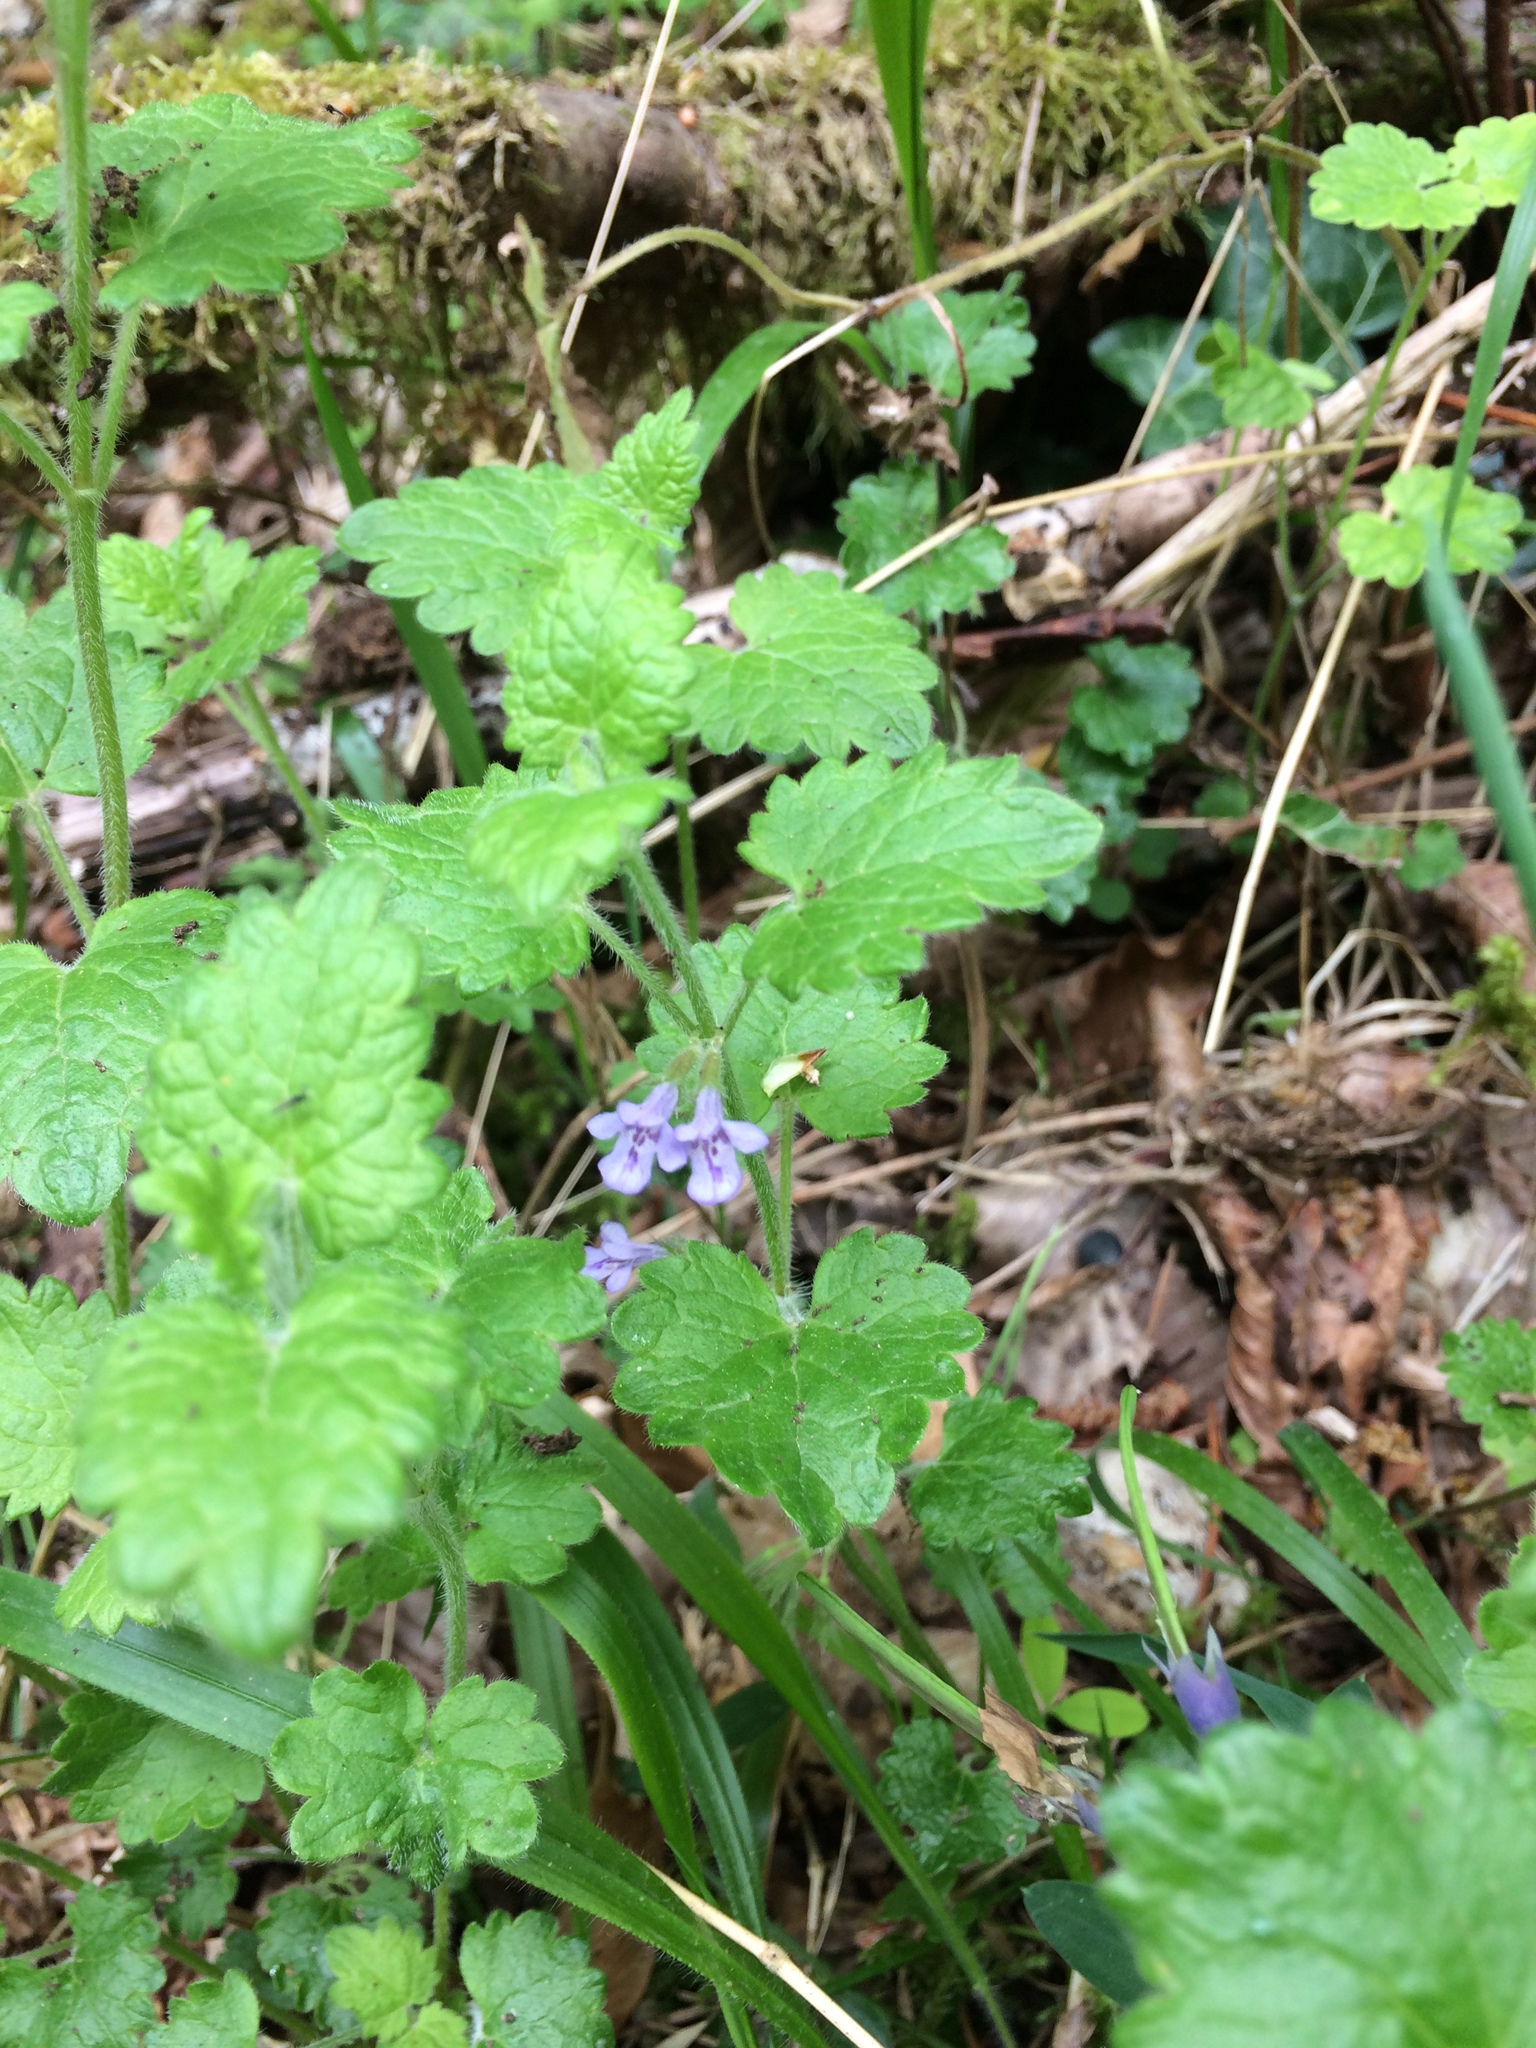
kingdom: Plantae
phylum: Tracheophyta
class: Magnoliopsida
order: Lamiales
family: Lamiaceae
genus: Glechoma
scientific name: Glechoma hederacea
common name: Ground ivy
